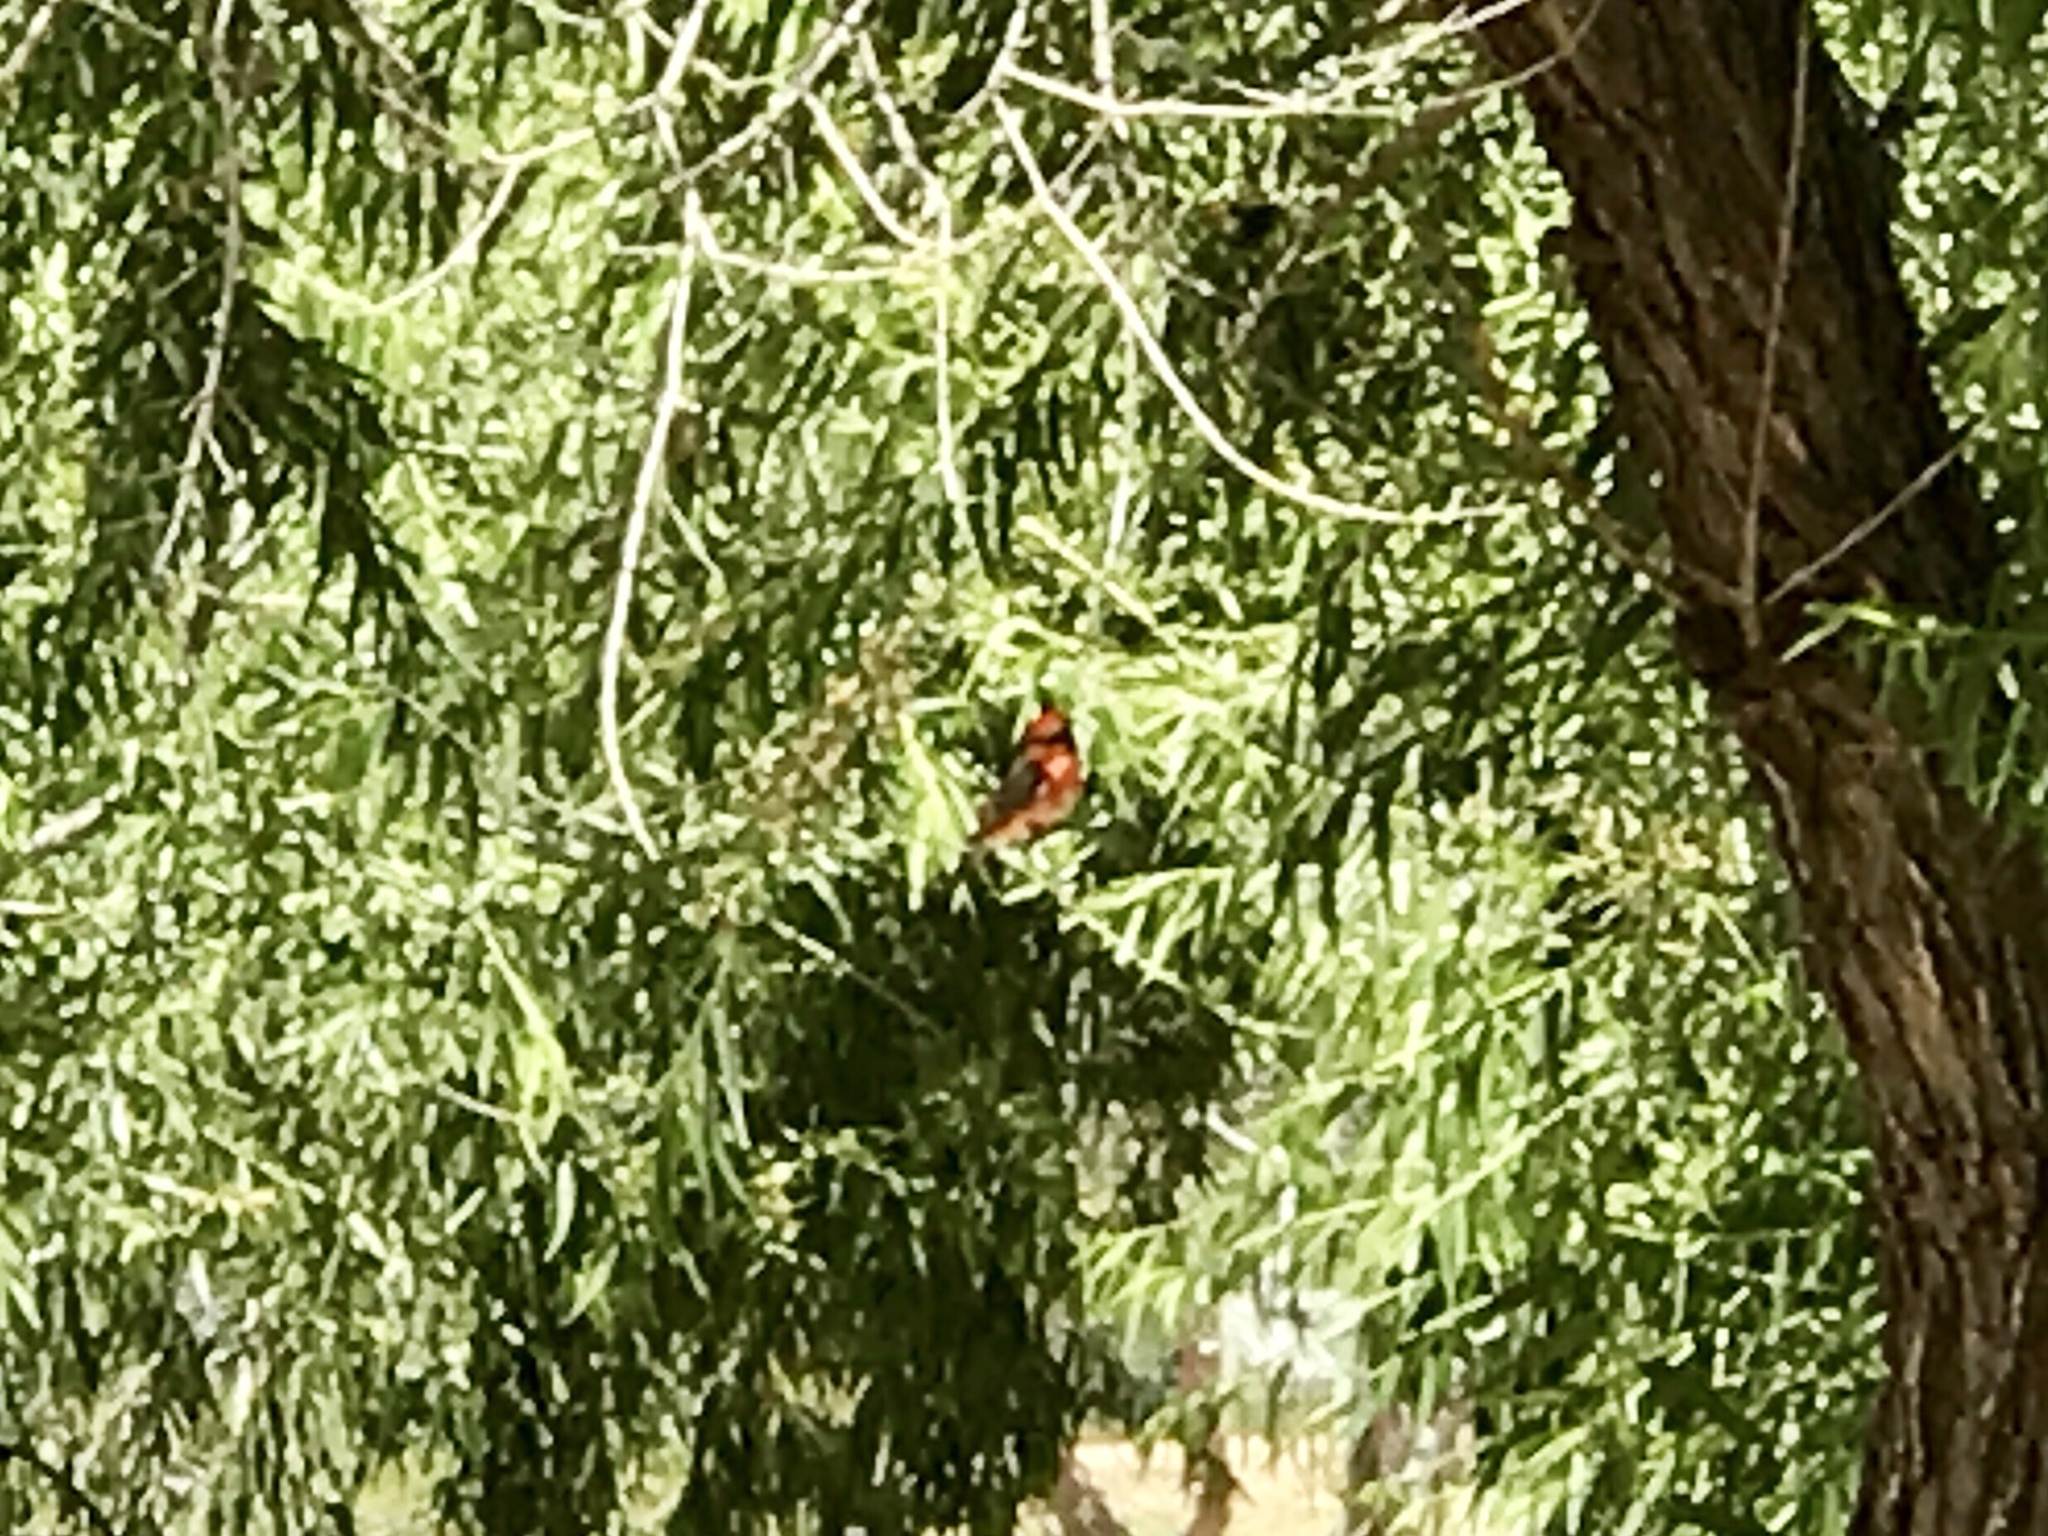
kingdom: Animalia
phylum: Chordata
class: Aves
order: Passeriformes
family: Tyrannidae
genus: Pyrocephalus
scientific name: Pyrocephalus rubinus
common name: Vermilion flycatcher
